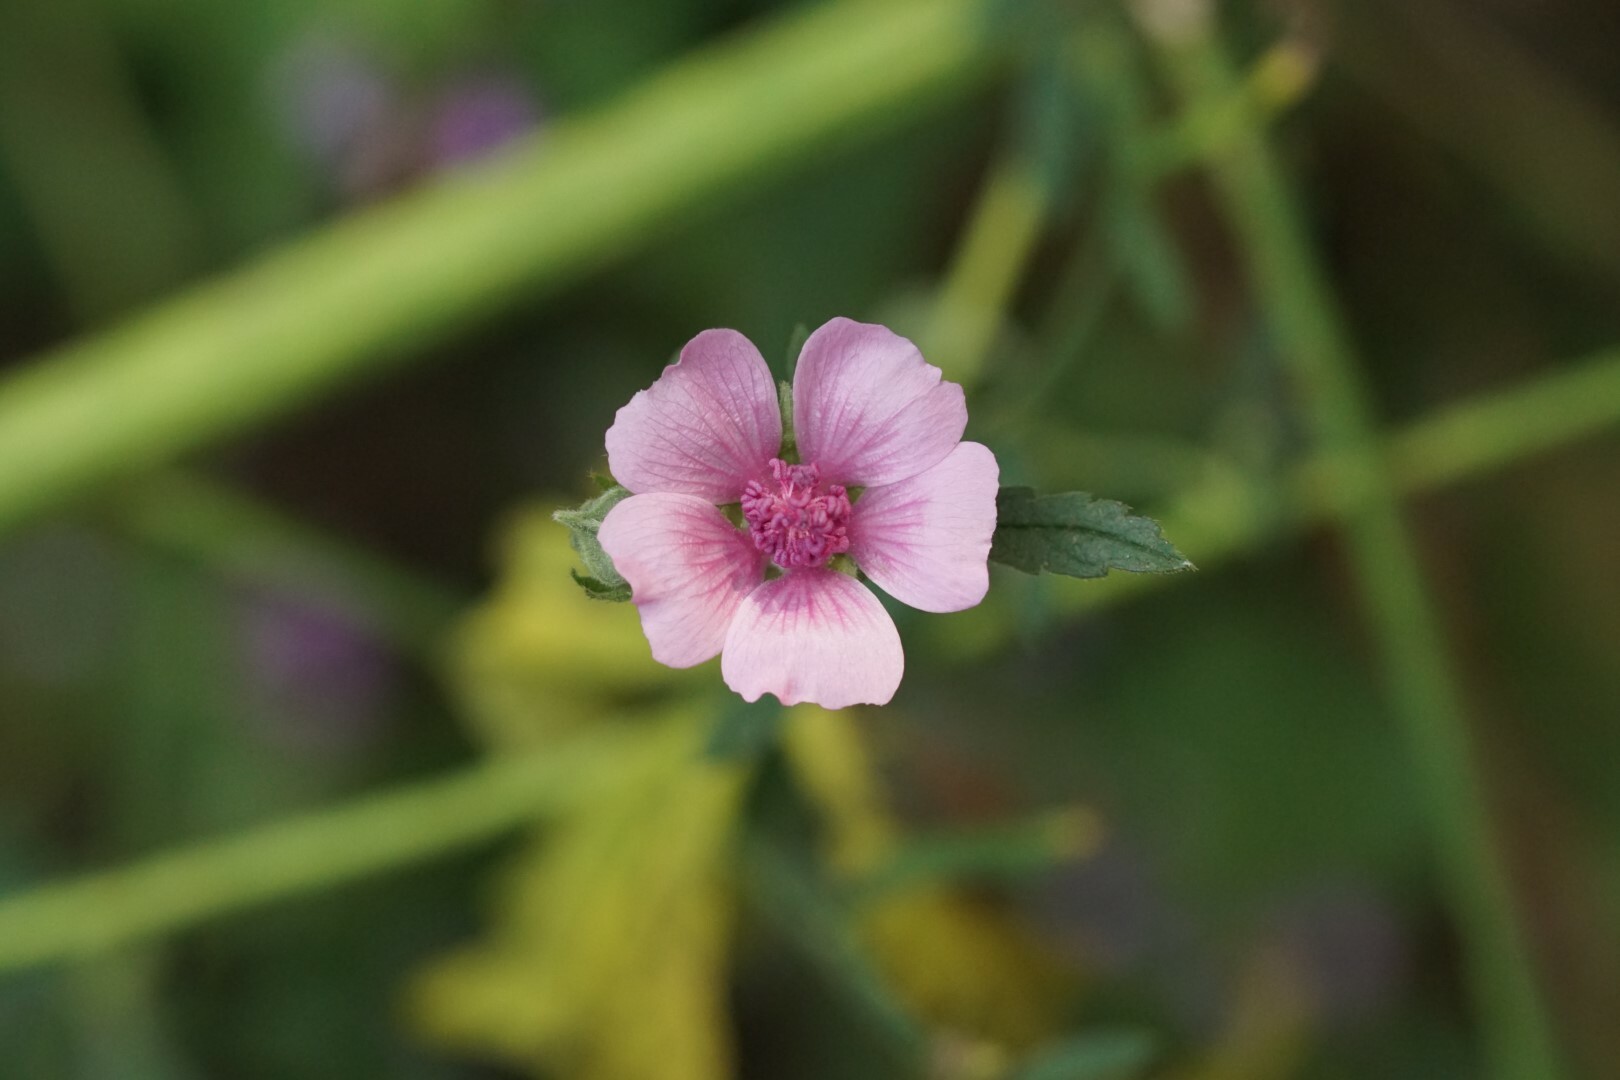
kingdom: Plantae
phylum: Tracheophyta
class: Magnoliopsida
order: Malvales
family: Malvaceae
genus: Althaea
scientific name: Althaea cannabina
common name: Palm-leaf marshmallow
